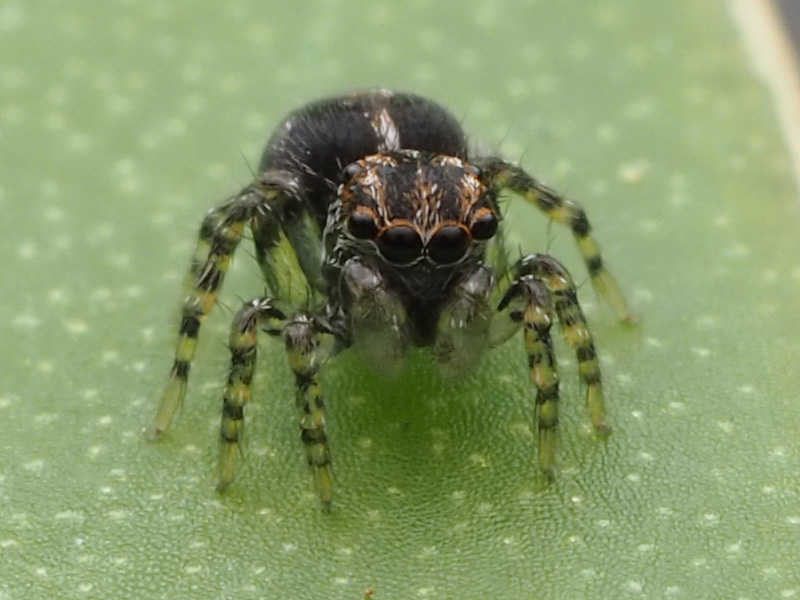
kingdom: Animalia
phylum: Arthropoda
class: Arachnida
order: Araneae
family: Salticidae
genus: Naphrys
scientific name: Naphrys xerophila
